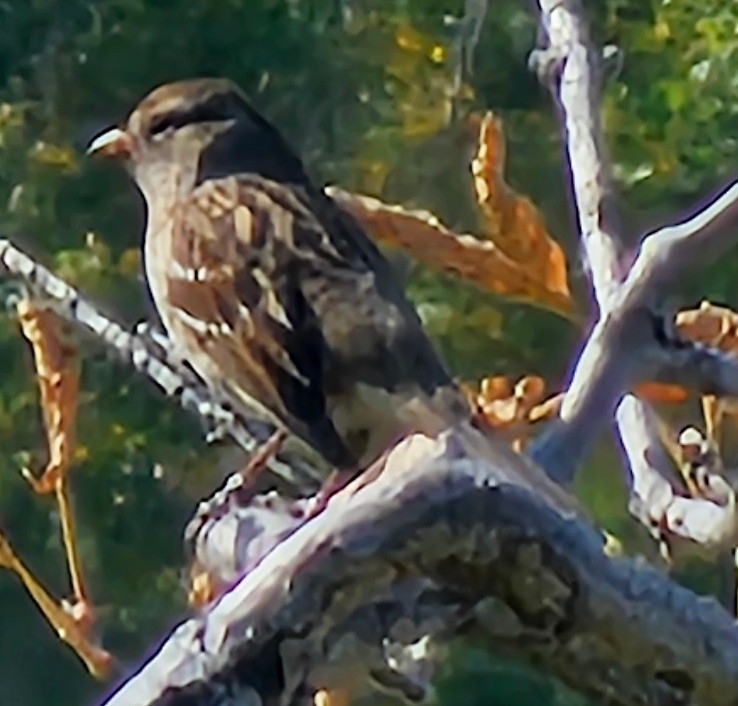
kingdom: Animalia
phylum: Chordata
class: Aves
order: Passeriformes
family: Passerellidae
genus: Zonotrichia
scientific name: Zonotrichia leucophrys
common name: White-crowned sparrow
